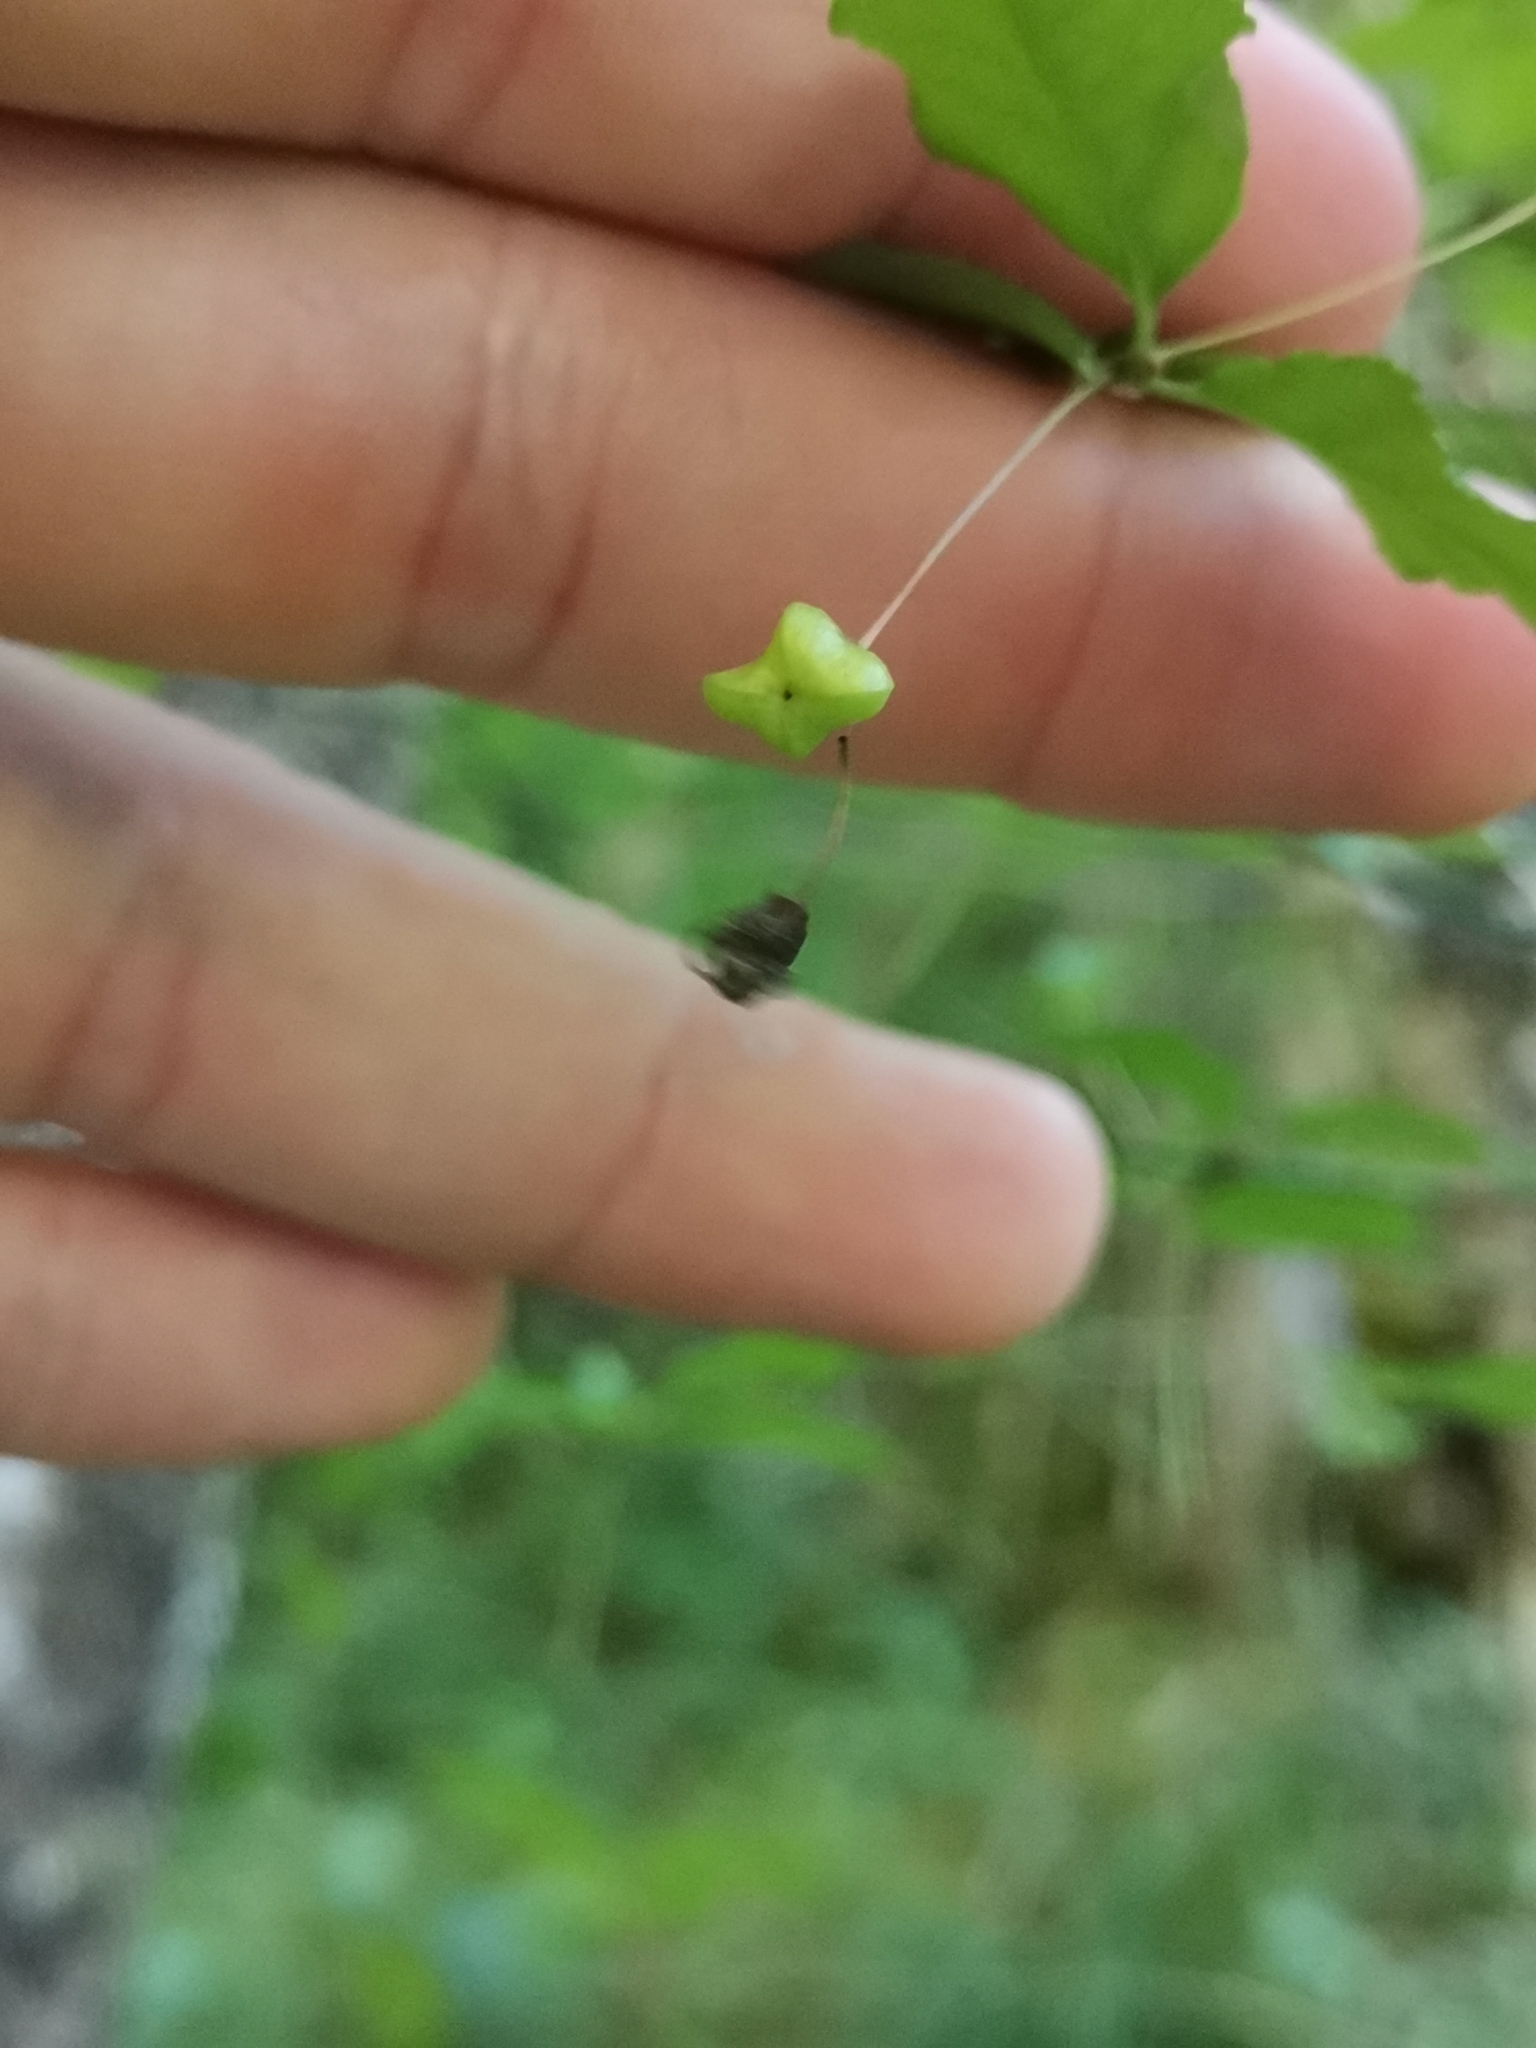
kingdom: Plantae
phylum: Tracheophyta
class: Magnoliopsida
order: Celastrales
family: Celastraceae
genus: Euonymus
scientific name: Euonymus verrucosus
